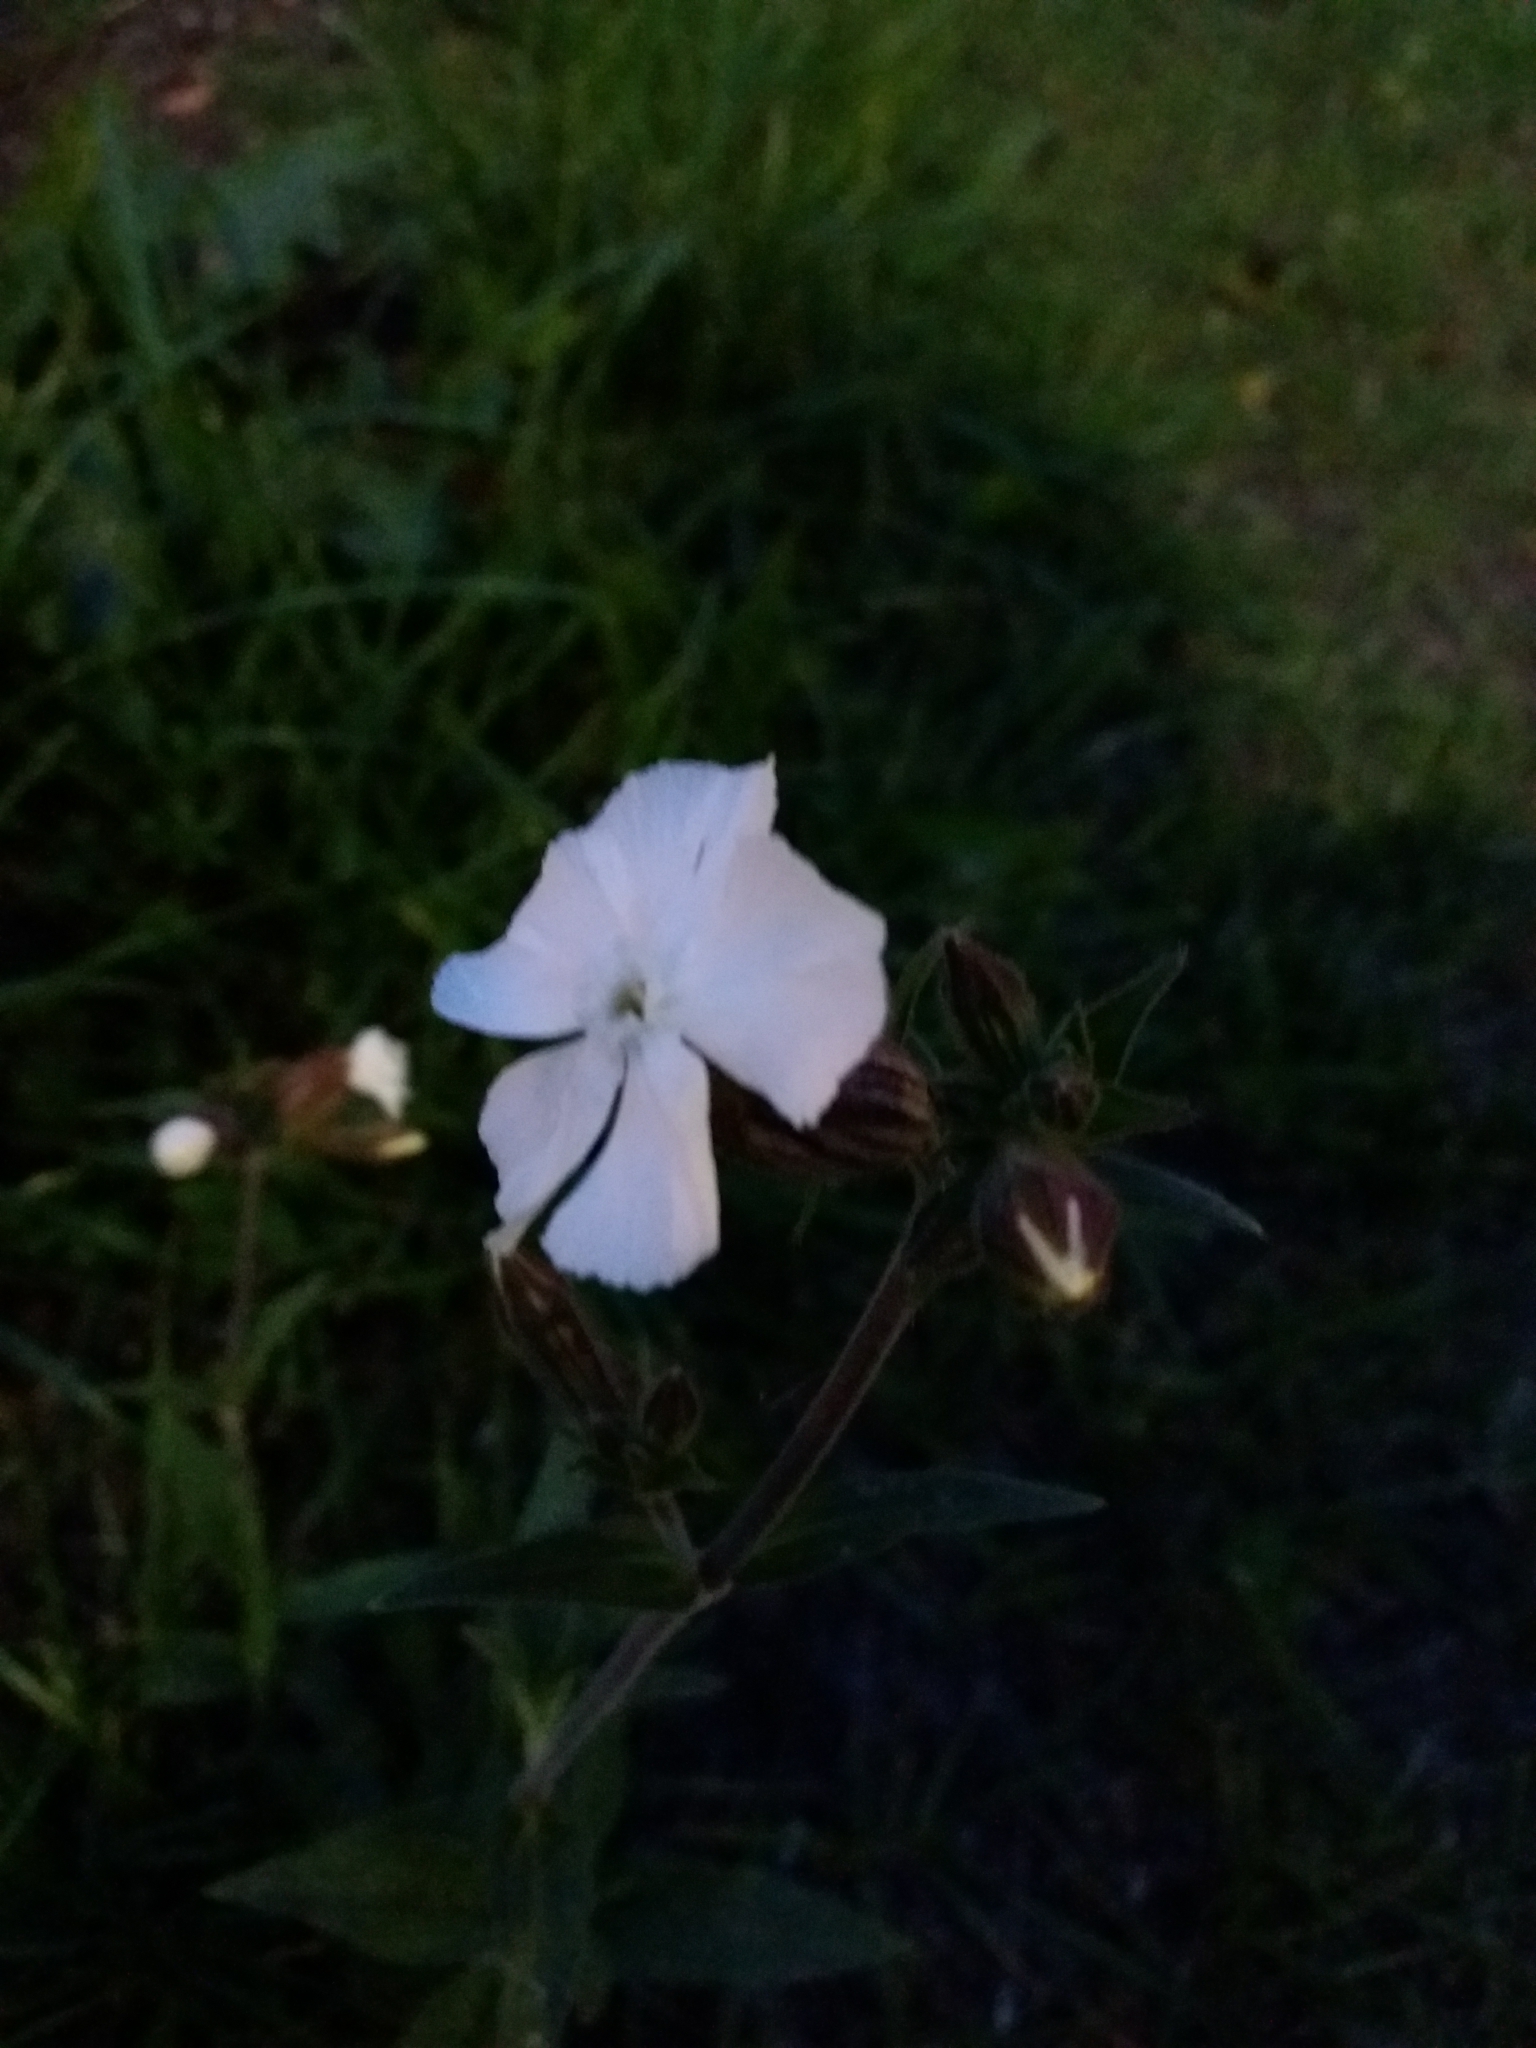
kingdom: Plantae
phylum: Tracheophyta
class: Magnoliopsida
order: Caryophyllales
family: Caryophyllaceae
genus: Silene
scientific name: Silene latifolia
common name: White campion
